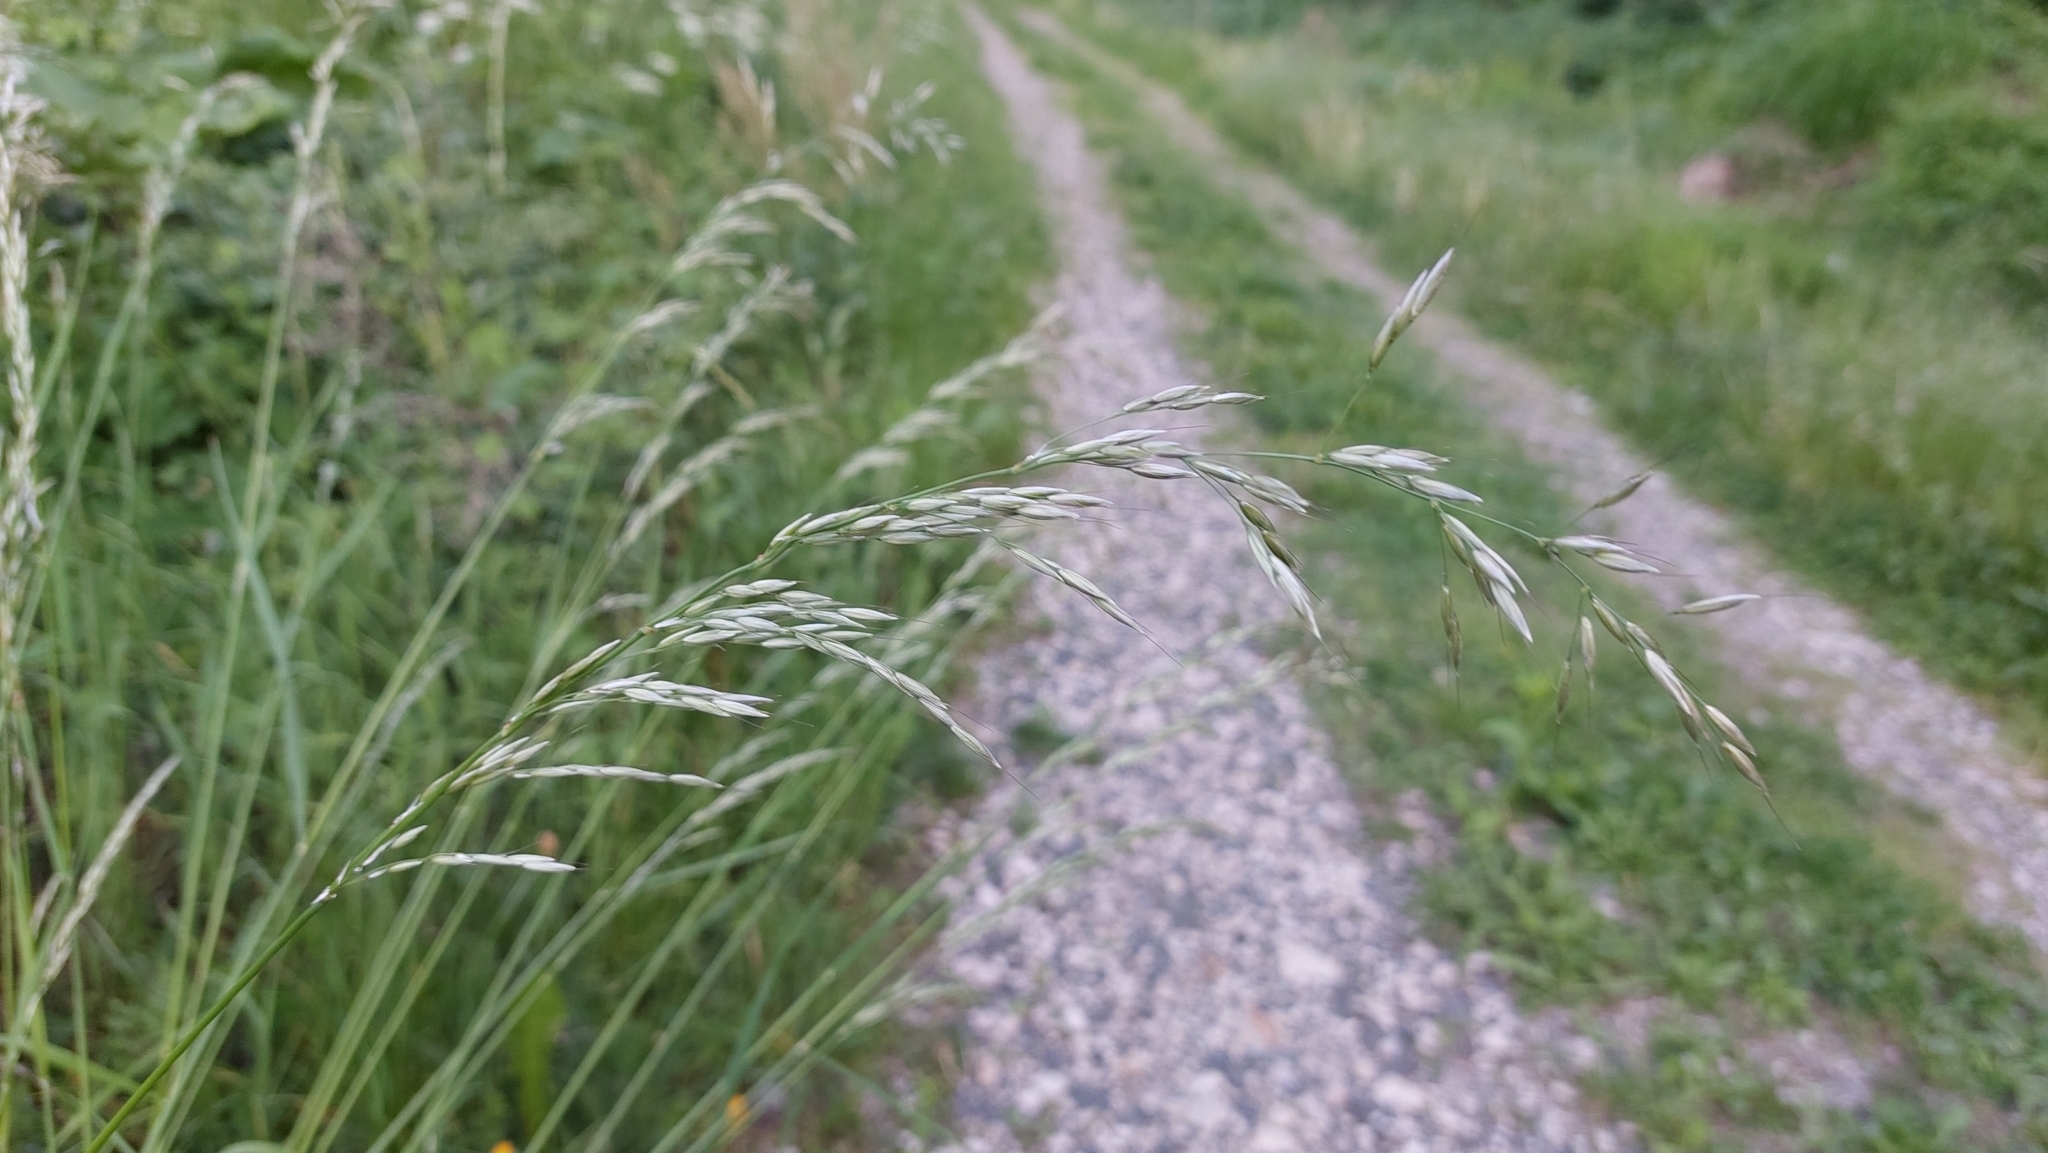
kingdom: Plantae
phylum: Tracheophyta
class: Liliopsida
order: Poales
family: Poaceae
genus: Arrhenatherum
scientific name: Arrhenatherum elatius
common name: Tall oatgrass
